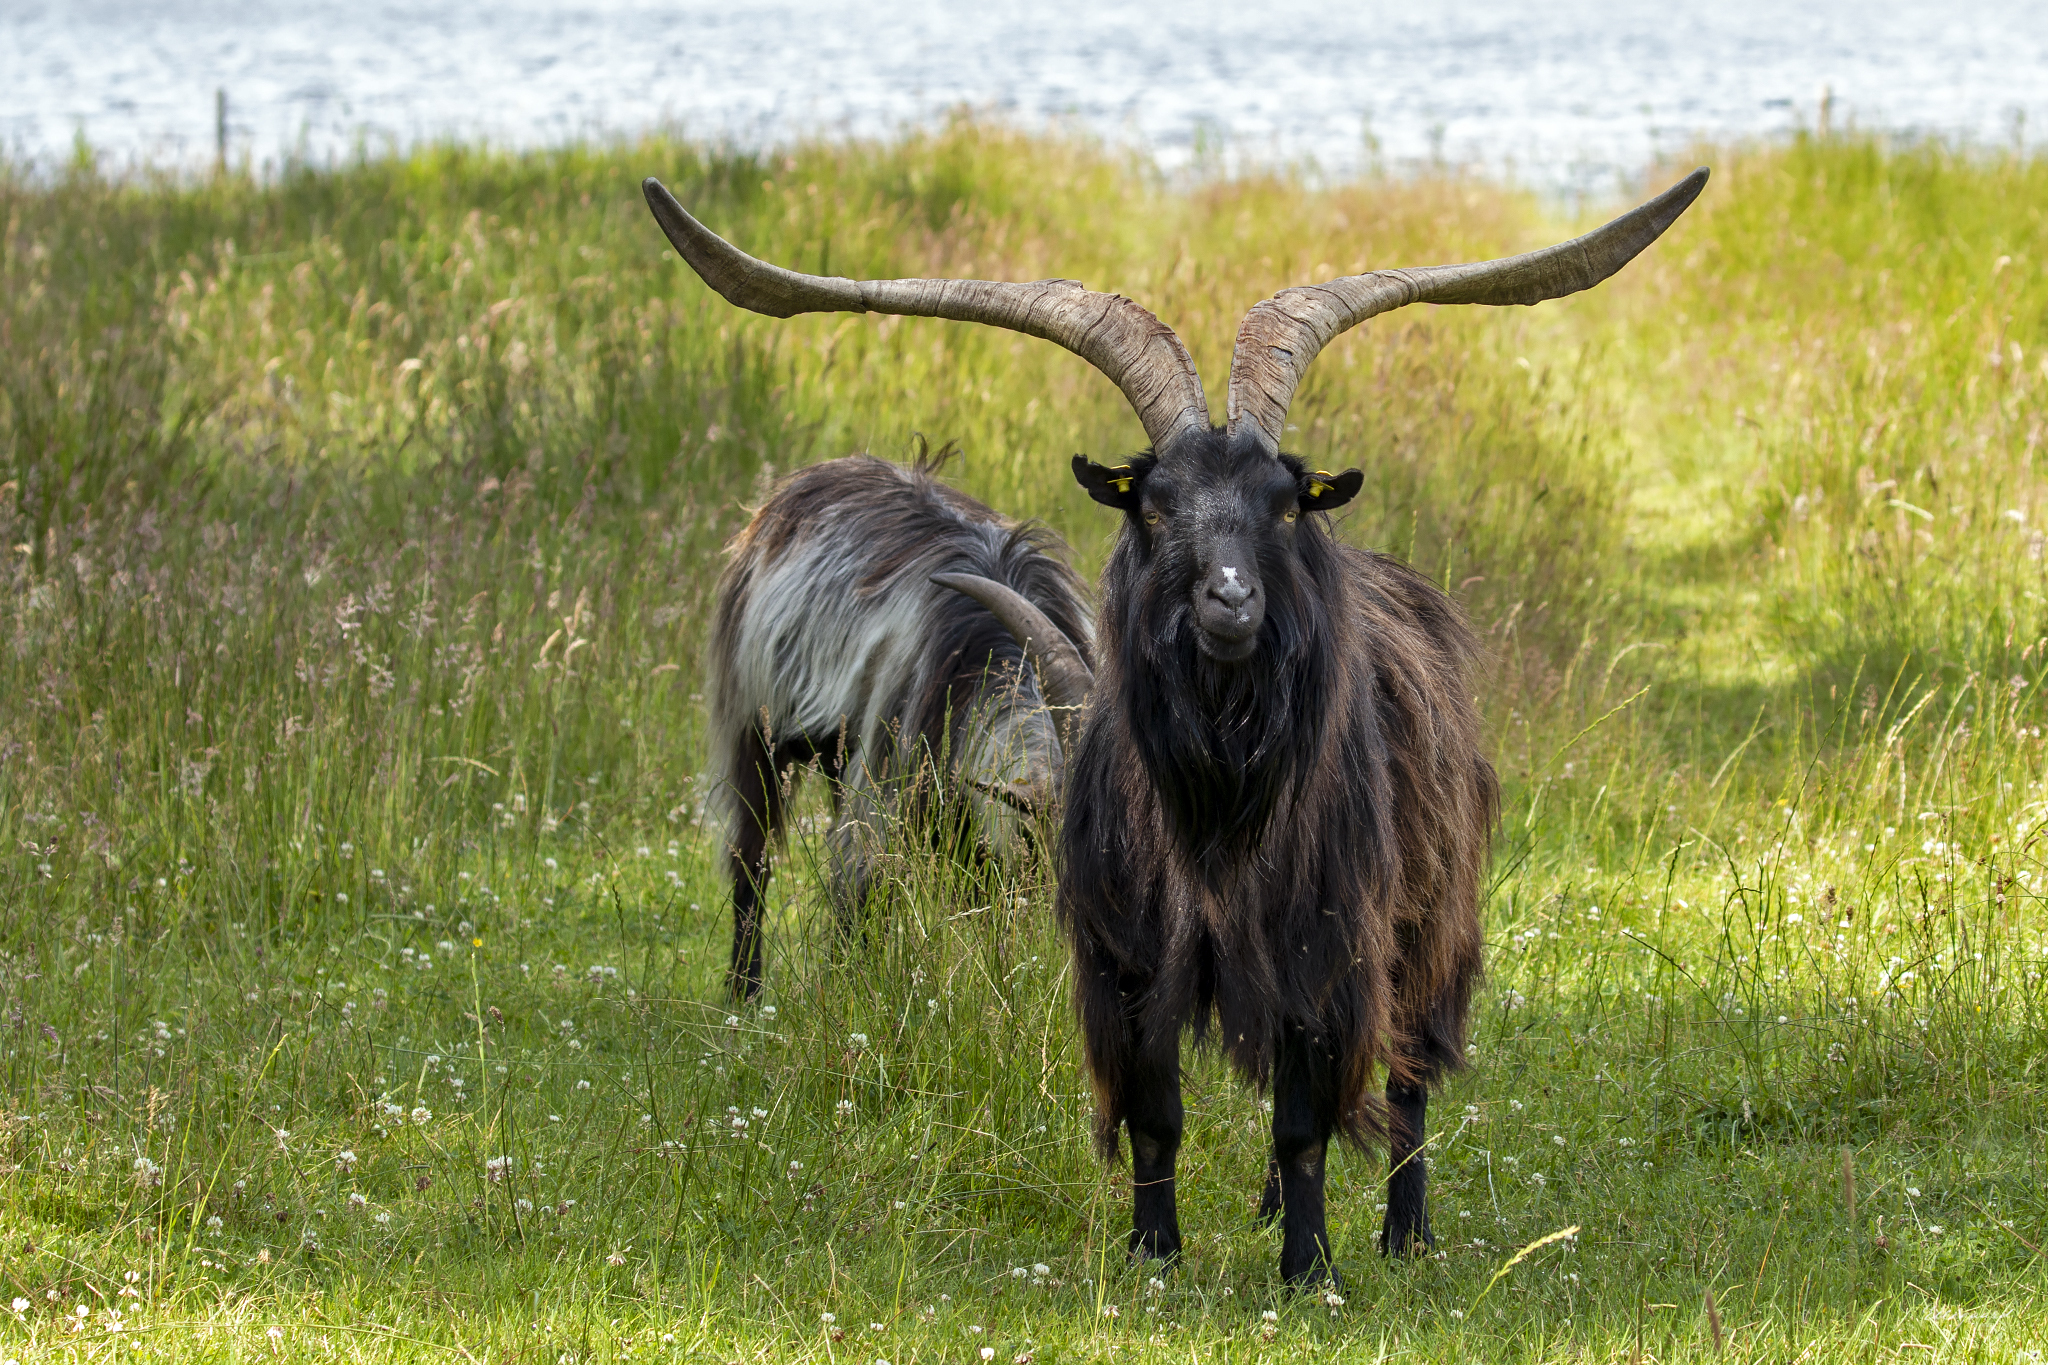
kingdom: Animalia
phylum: Chordata
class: Mammalia
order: Artiodactyla
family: Bovidae
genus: Capra
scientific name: Capra hircus
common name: Domestic goat
